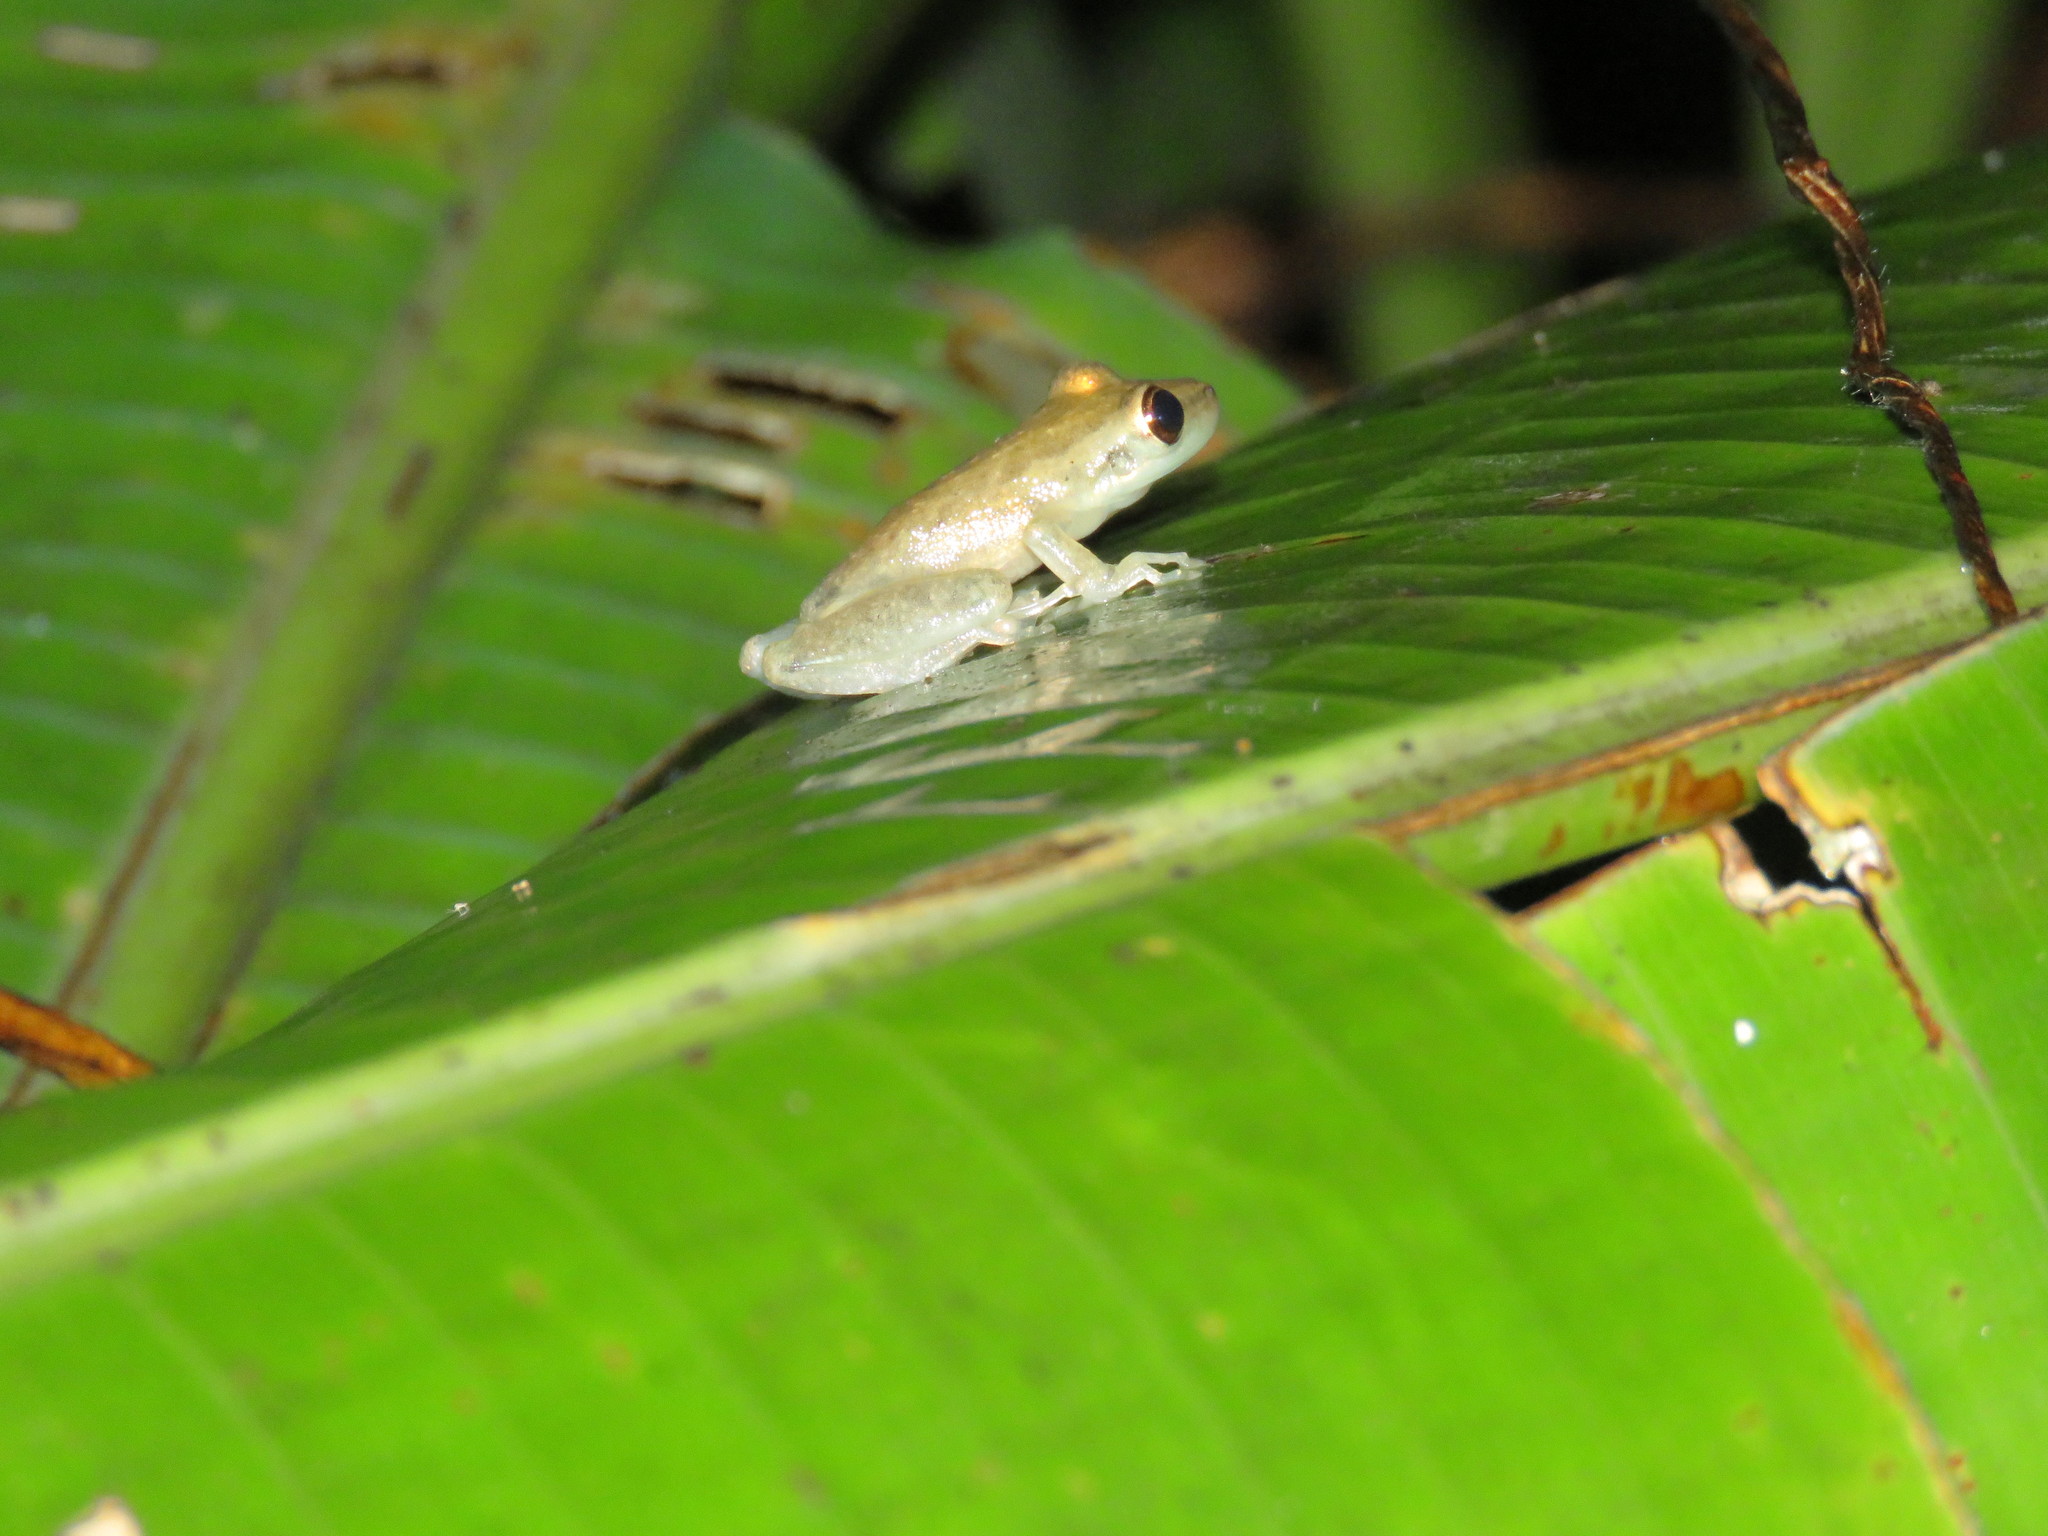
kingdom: Animalia
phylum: Chordata
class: Amphibia
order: Anura
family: Hylidae
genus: Scinax
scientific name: Scinax ruber
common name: Red snouted treefrog
